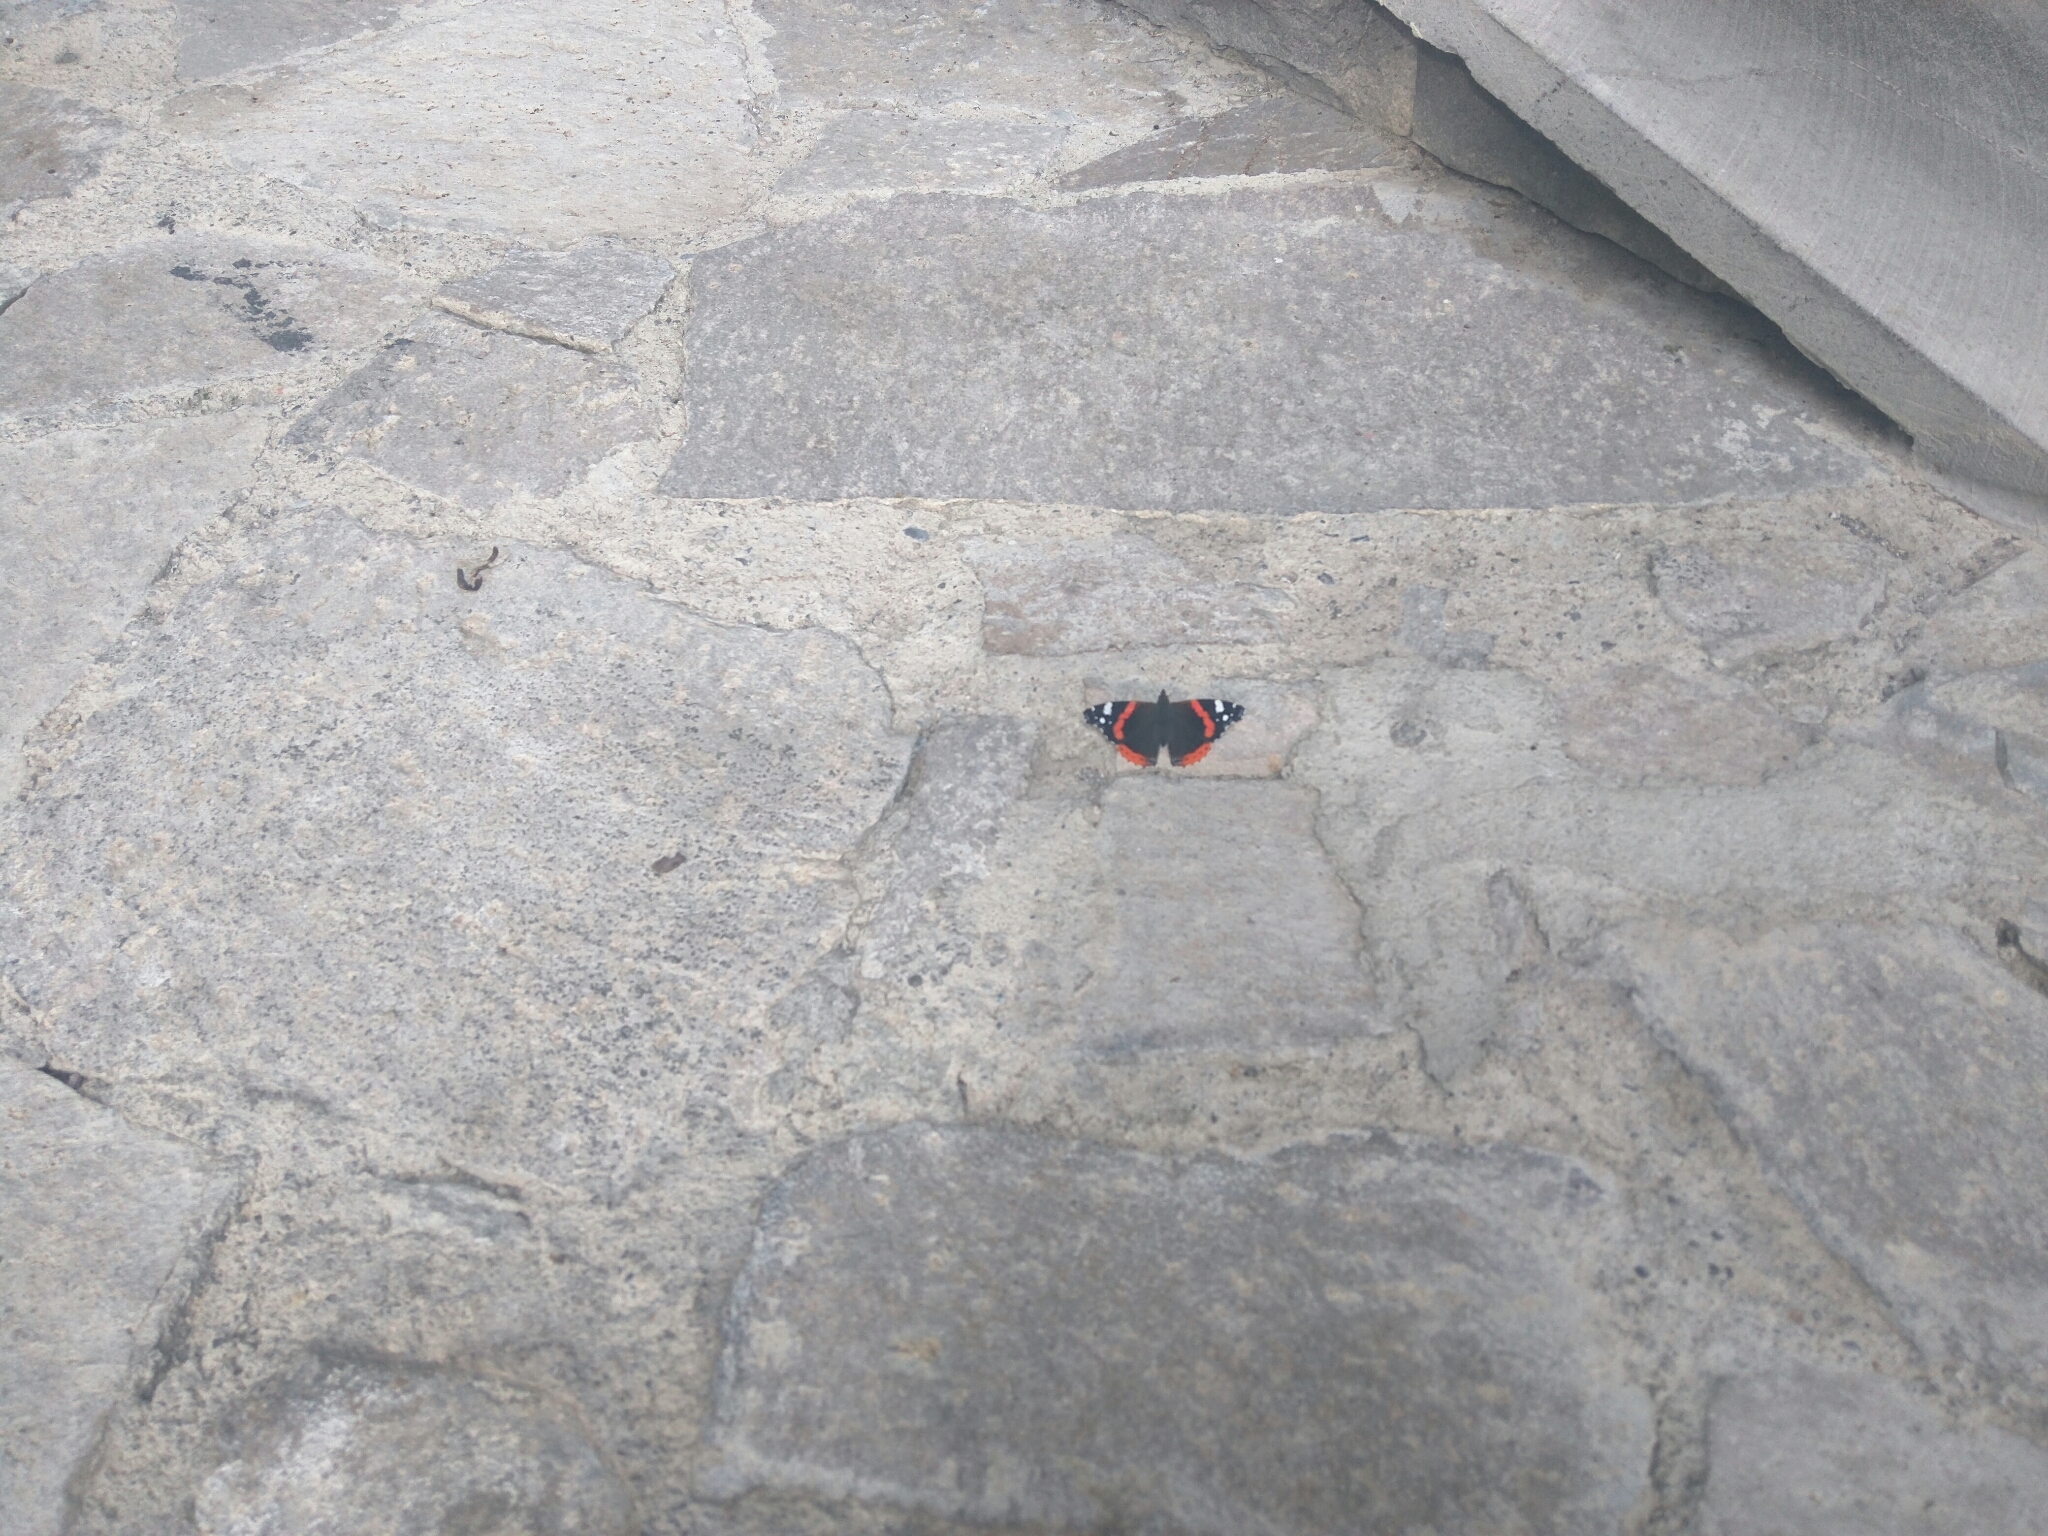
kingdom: Animalia
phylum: Arthropoda
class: Insecta
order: Lepidoptera
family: Nymphalidae
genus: Vanessa
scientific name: Vanessa atalanta
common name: Red admiral
